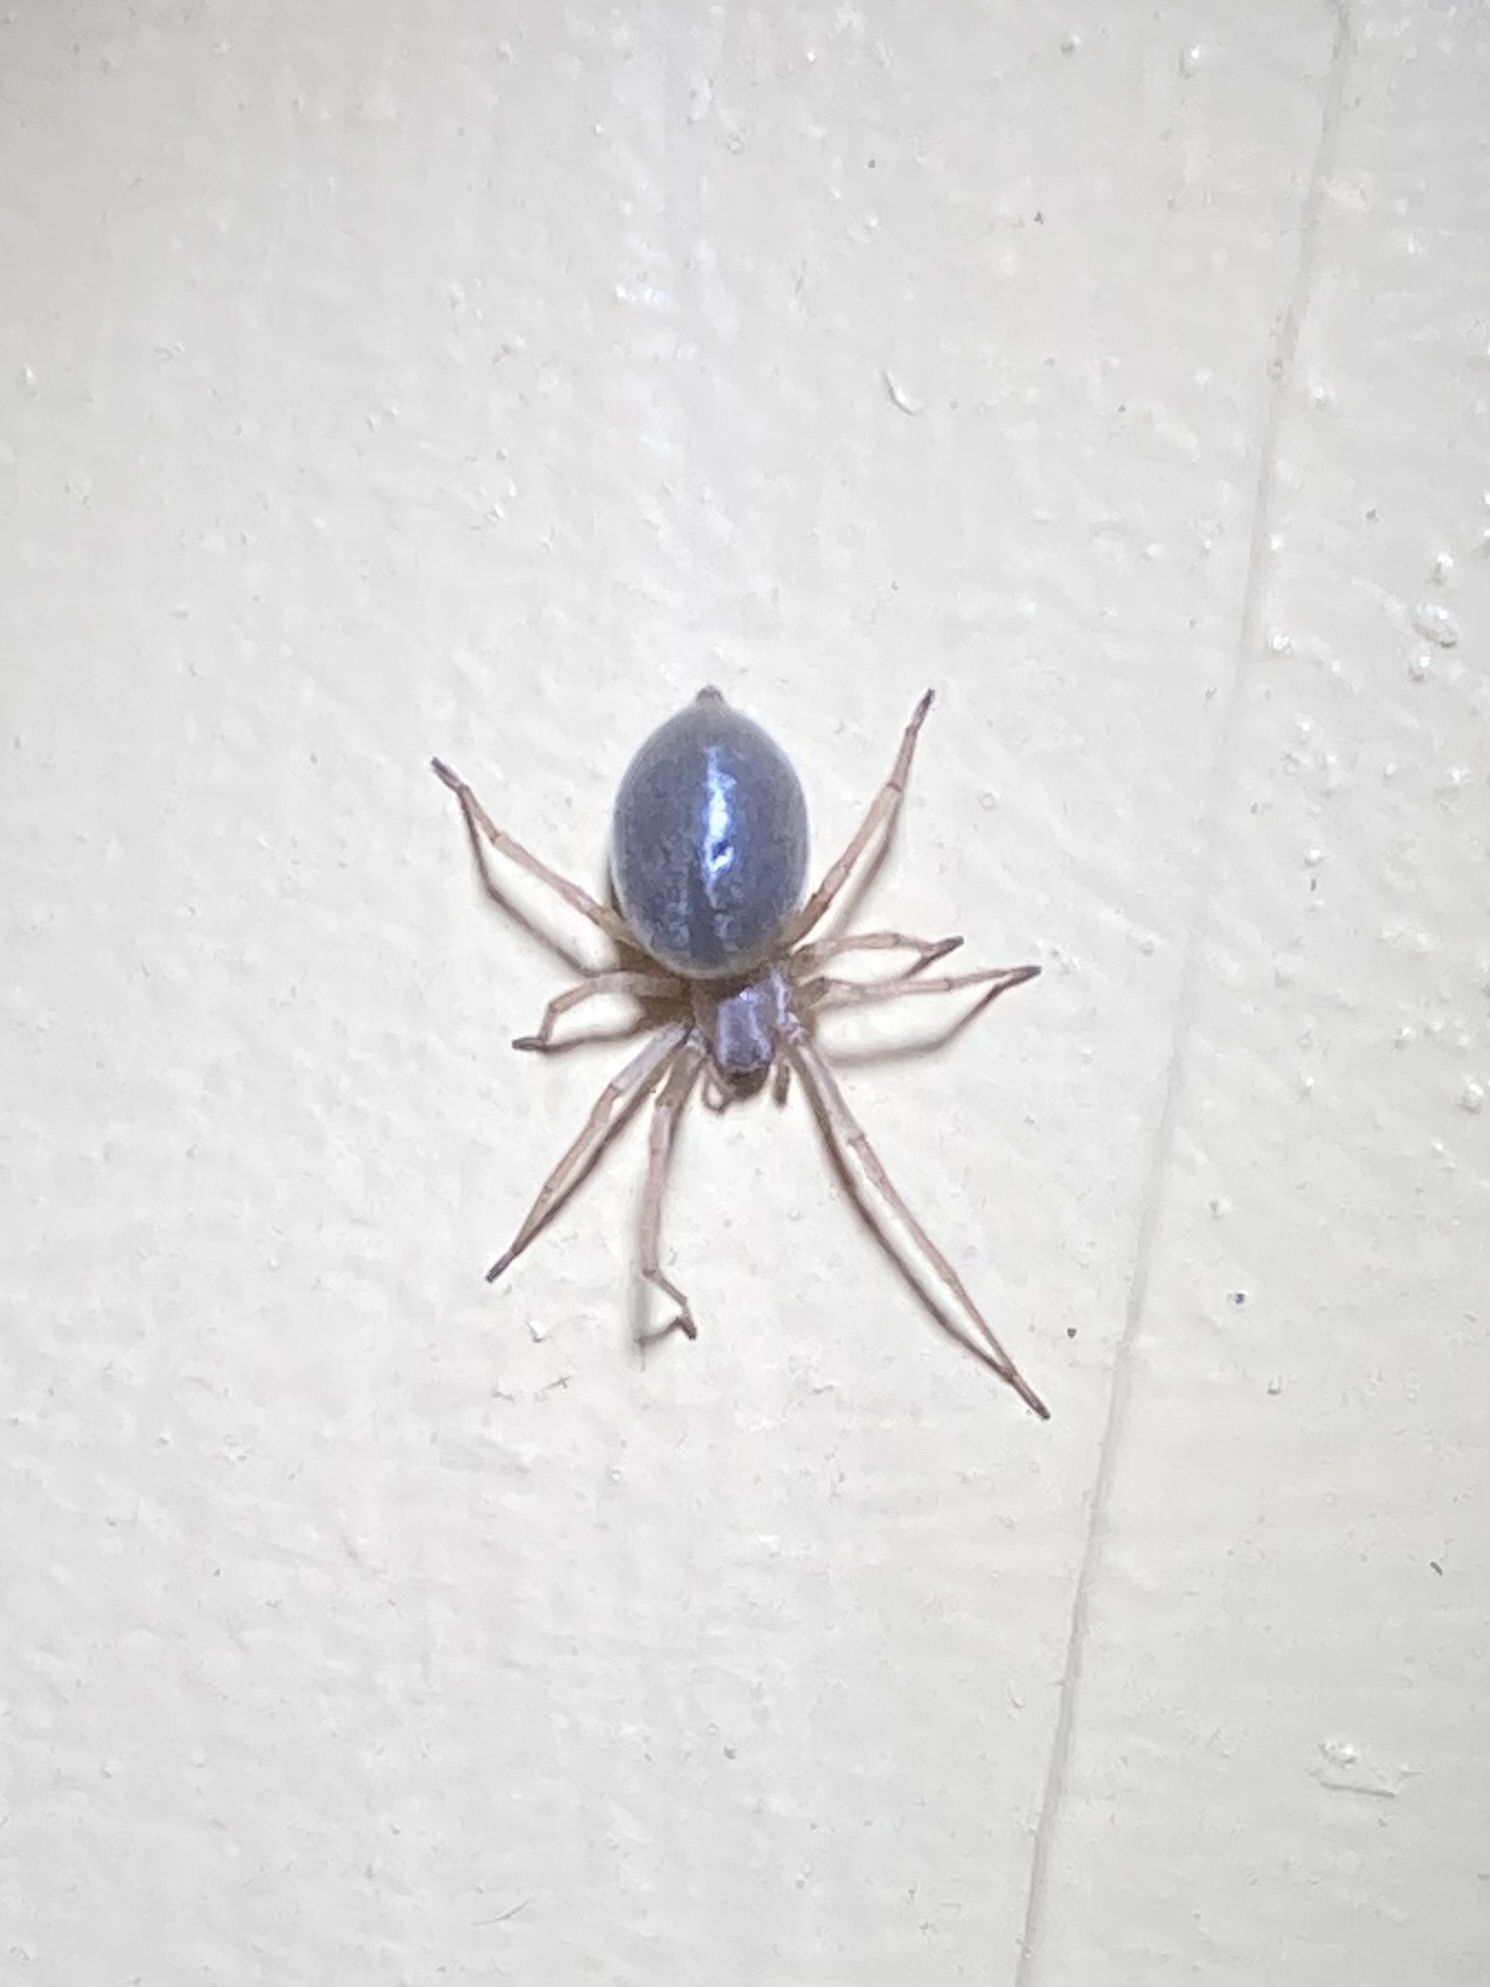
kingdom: Animalia
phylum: Arthropoda
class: Arachnida
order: Araneae
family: Cheiracanthiidae
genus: Cheiracanthium
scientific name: Cheiracanthium mildei
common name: Northern yellow sac spider
